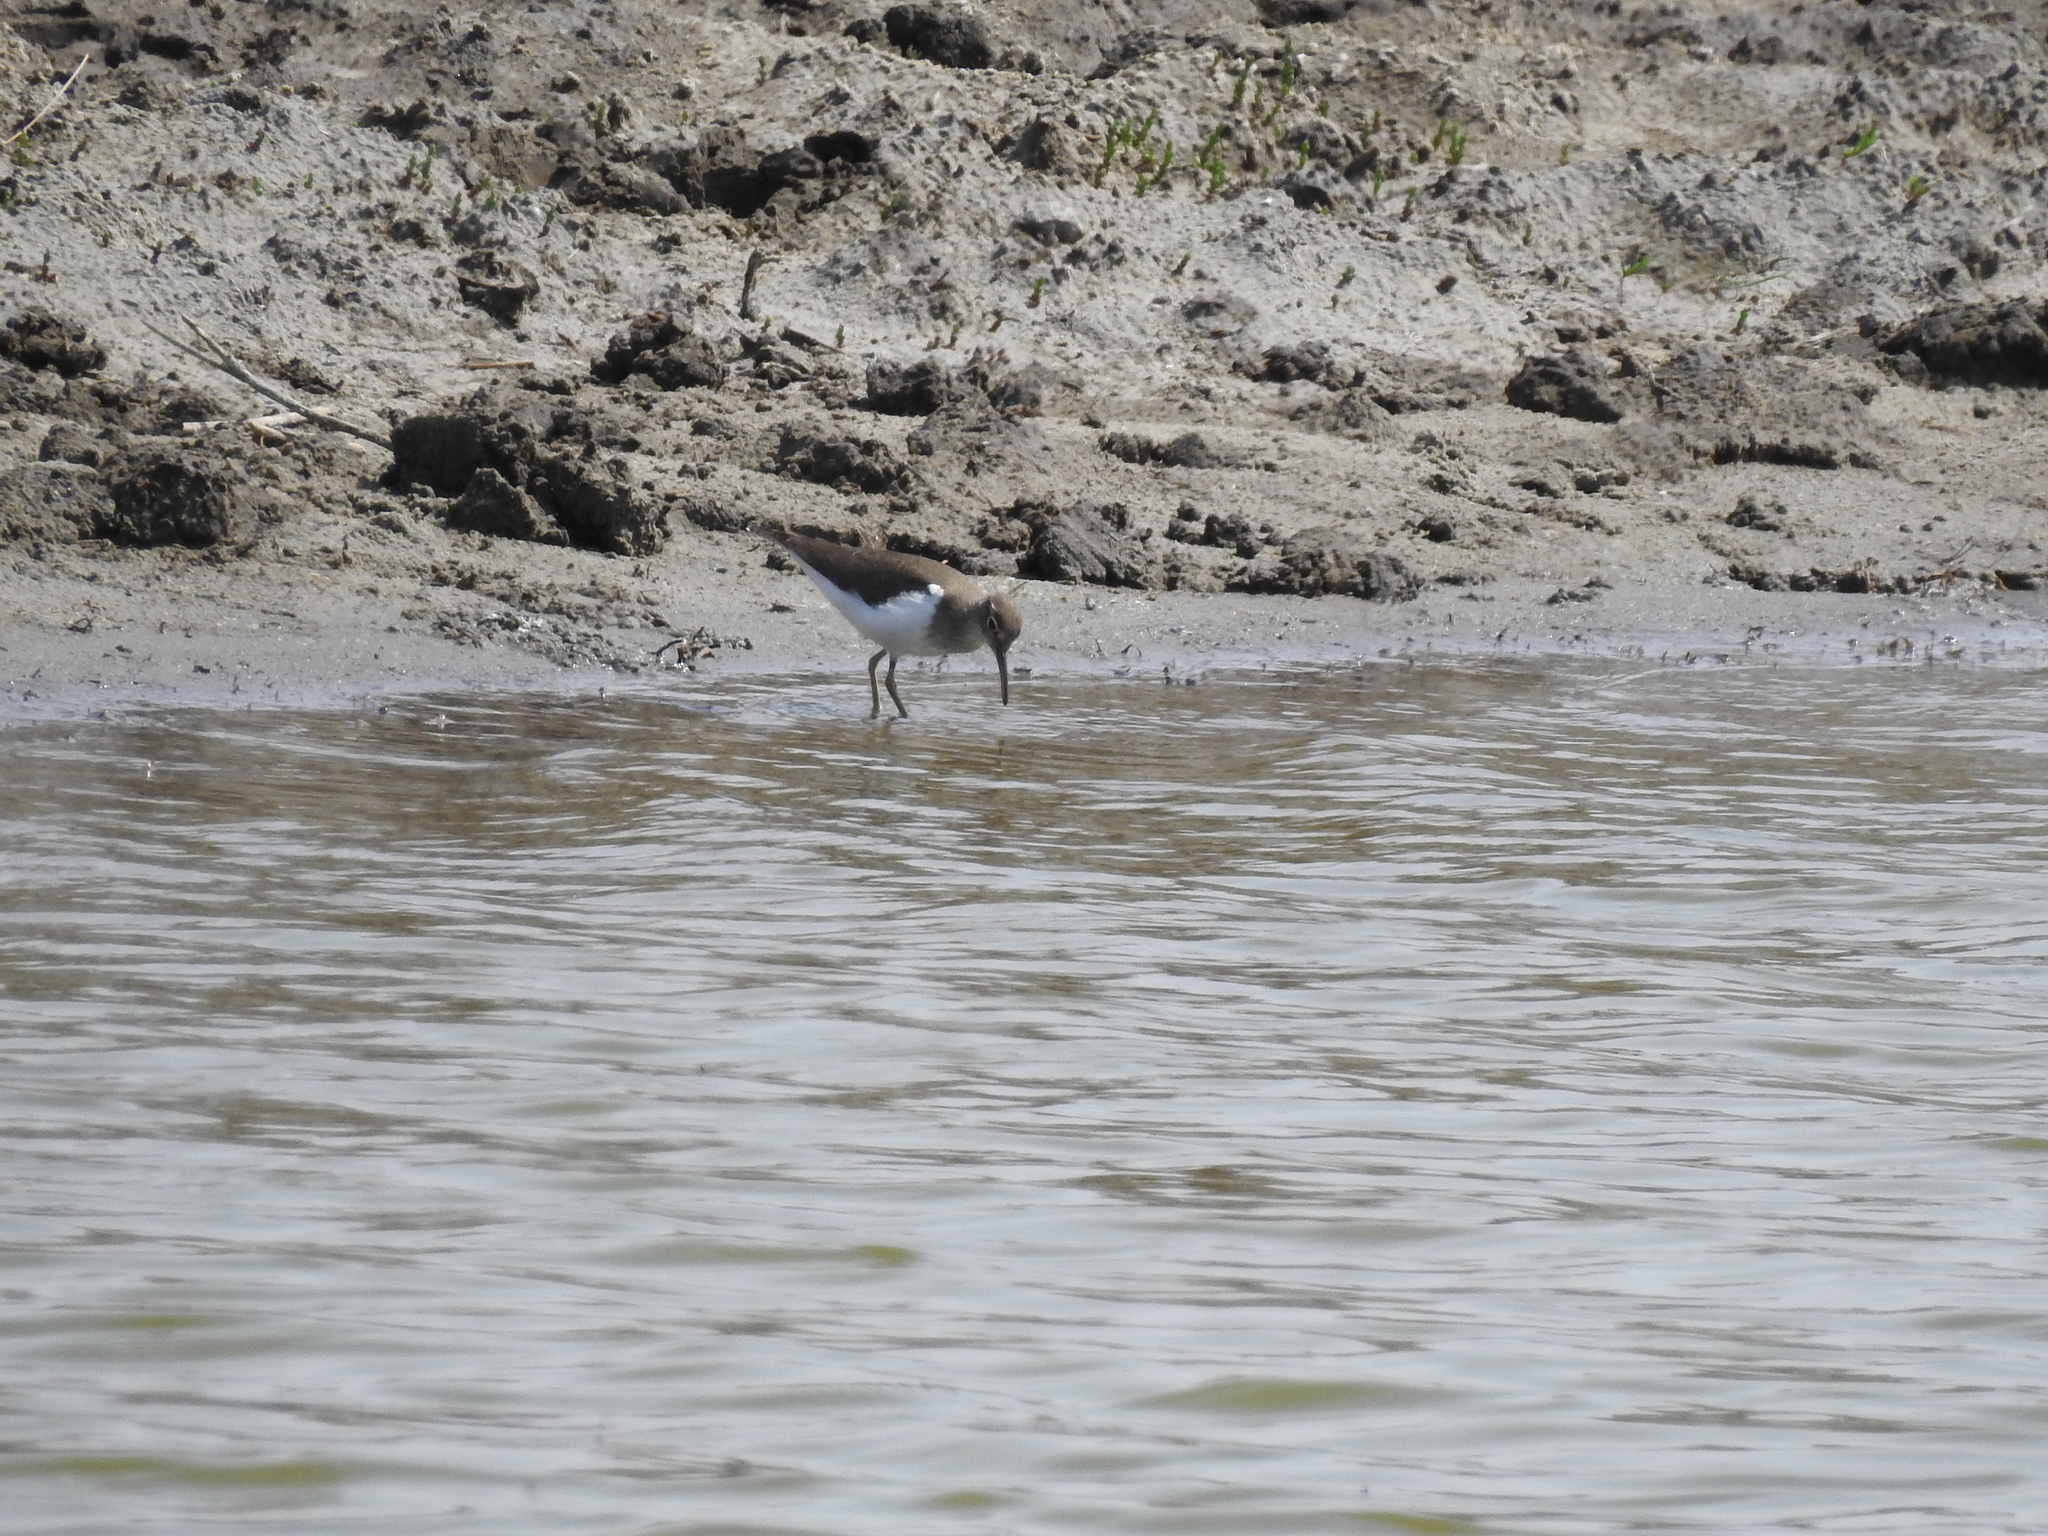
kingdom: Animalia
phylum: Chordata
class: Aves
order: Charadriiformes
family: Scolopacidae
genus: Actitis
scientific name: Actitis hypoleucos
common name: Common sandpiper
